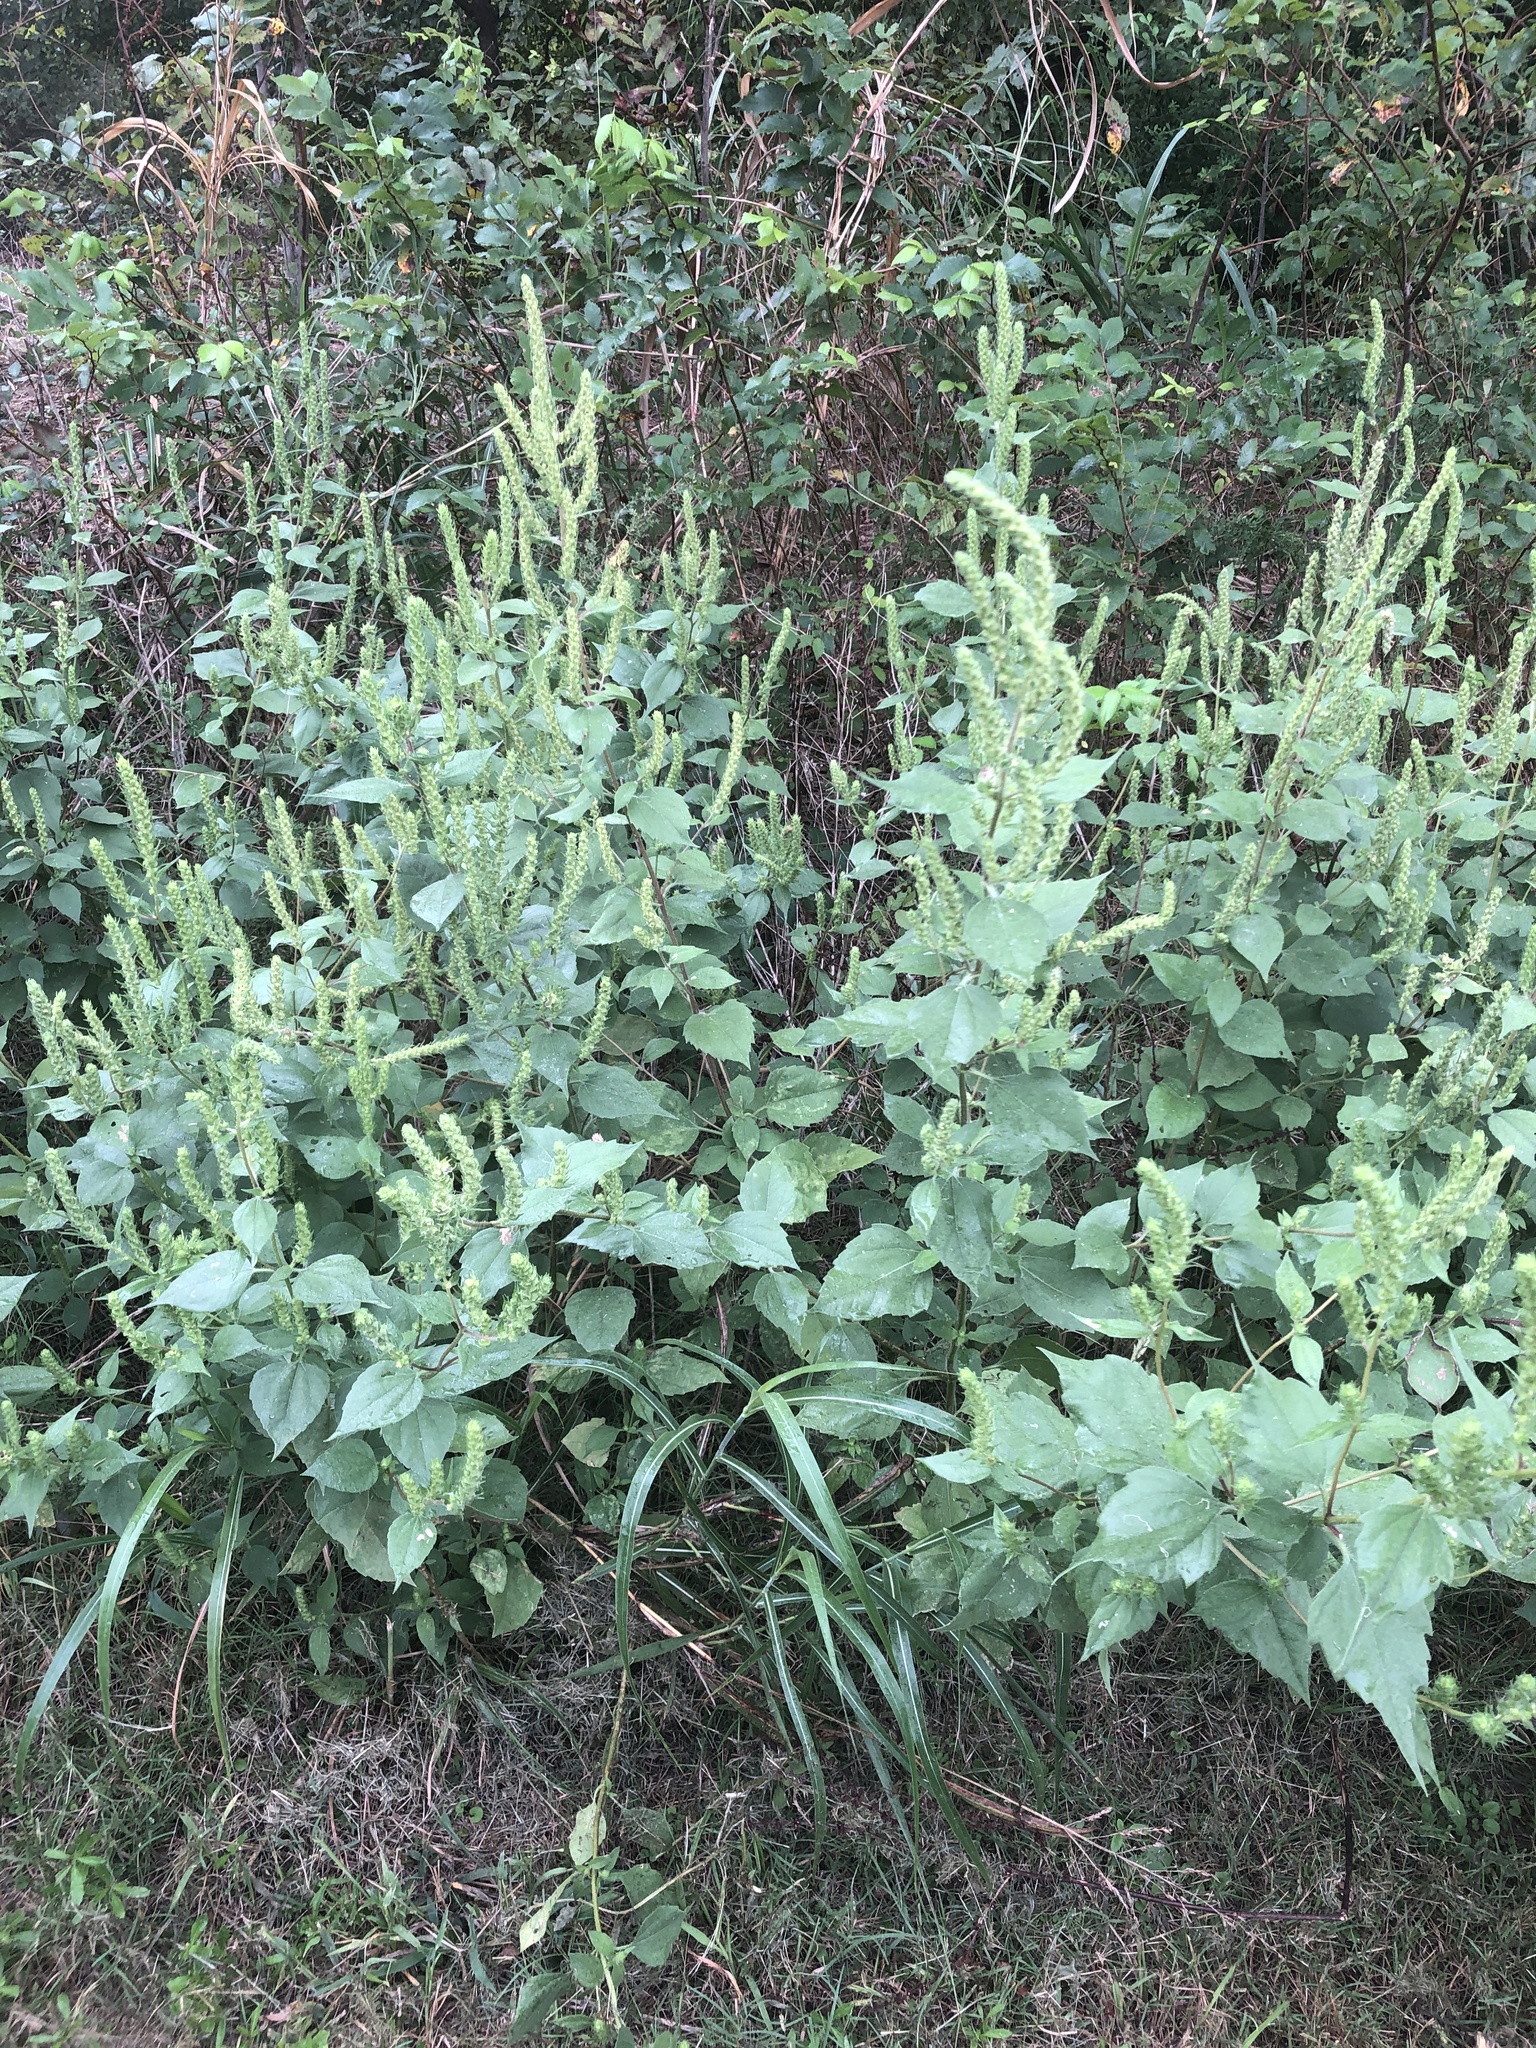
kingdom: Plantae
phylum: Tracheophyta
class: Magnoliopsida
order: Asterales
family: Asteraceae
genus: Iva
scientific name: Iva annua
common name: Marsh-elder
